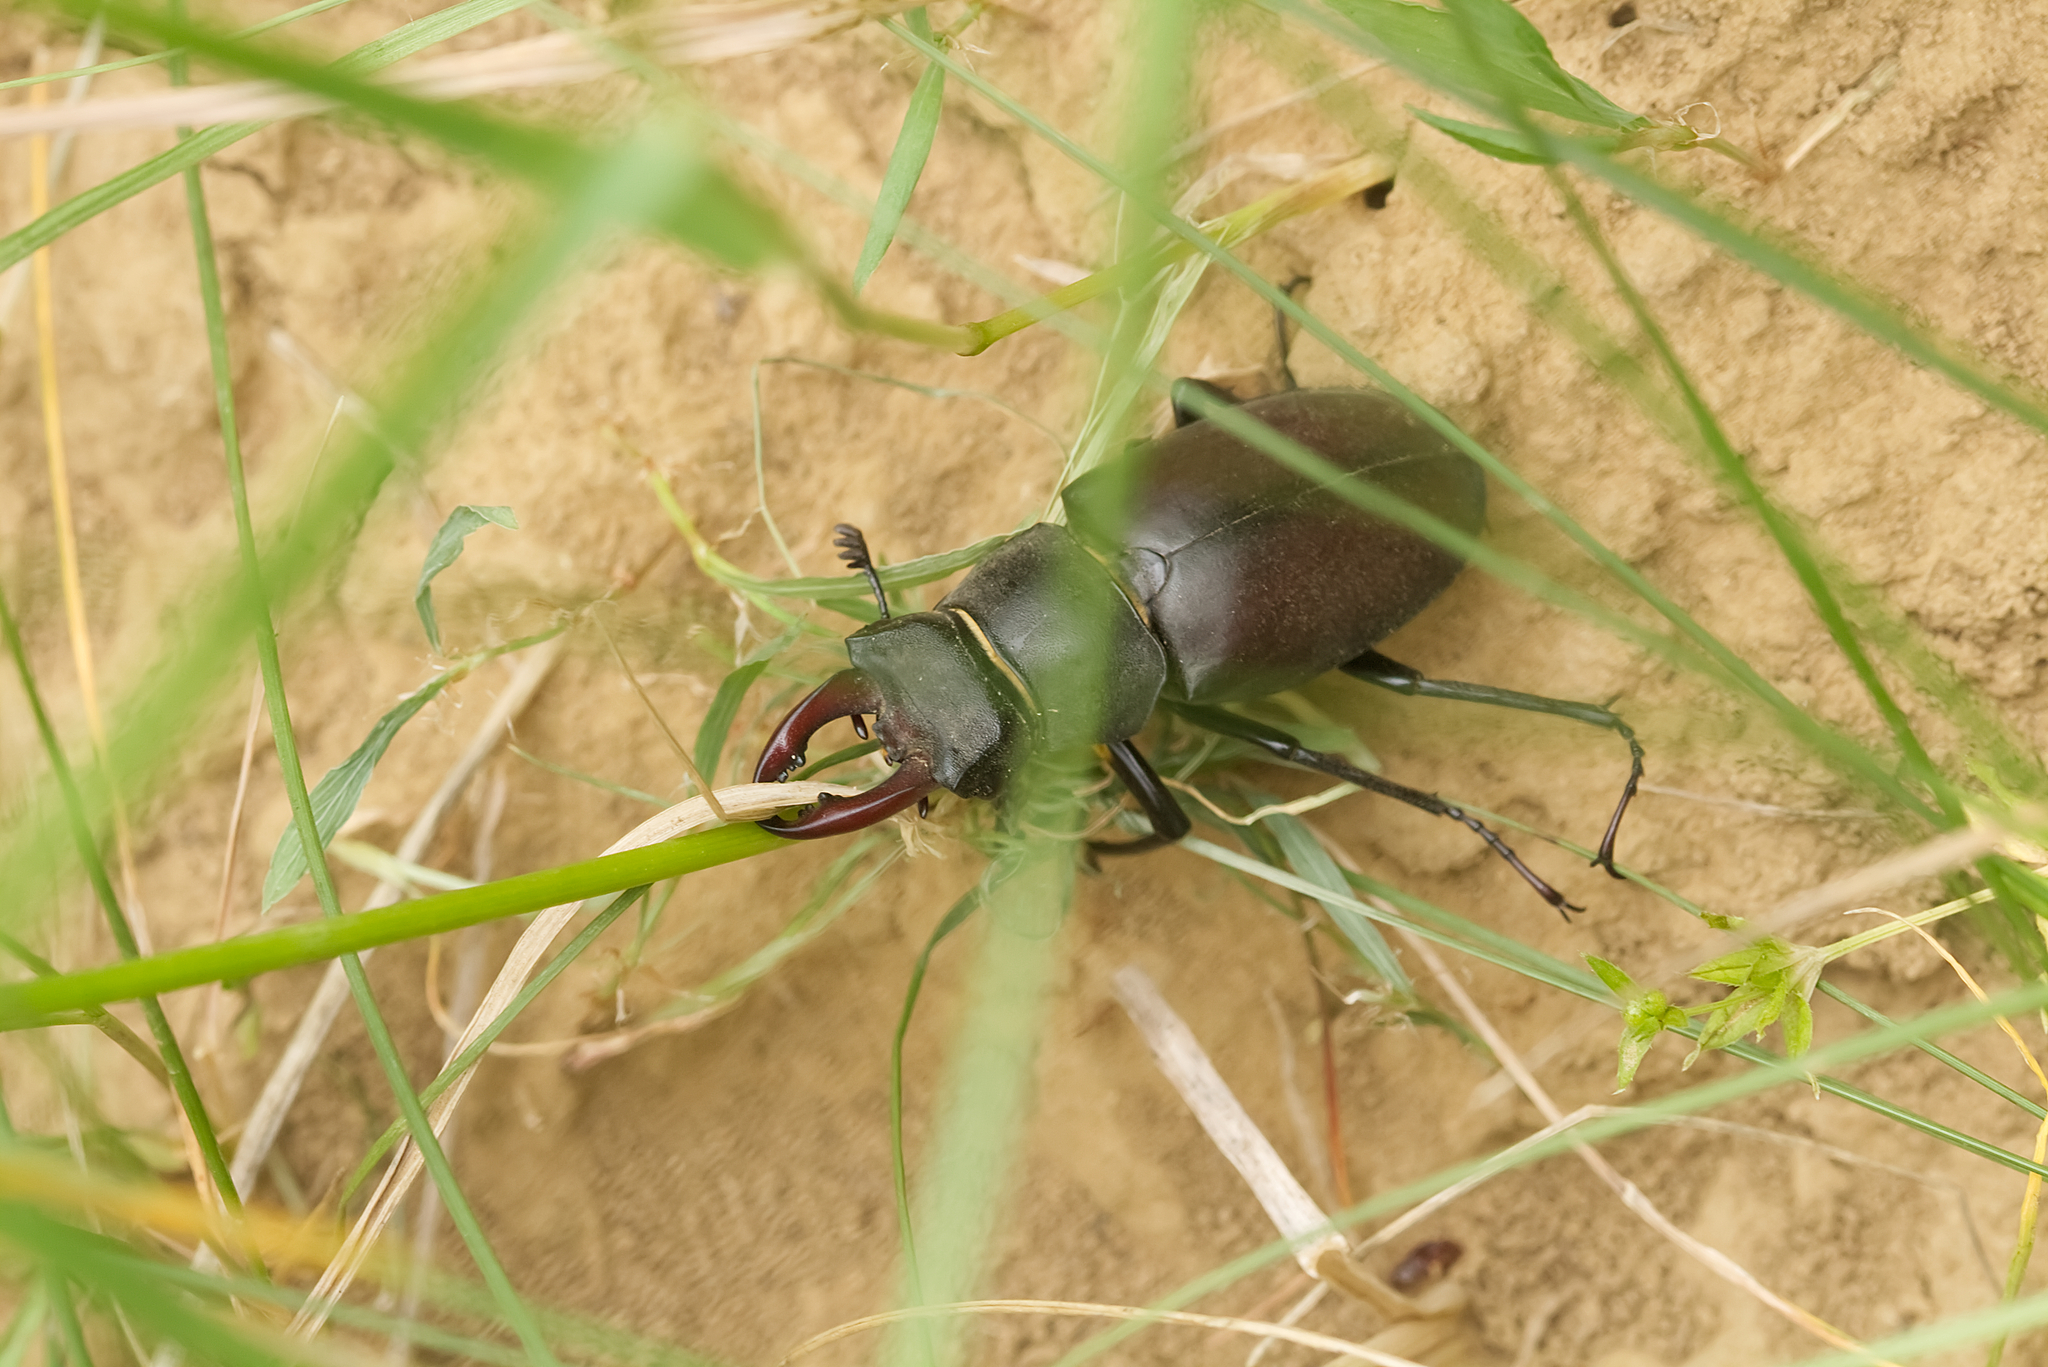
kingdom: Animalia
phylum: Arthropoda
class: Insecta
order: Coleoptera
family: Lucanidae
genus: Lucanus
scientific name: Lucanus cervus
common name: Stag beetle
